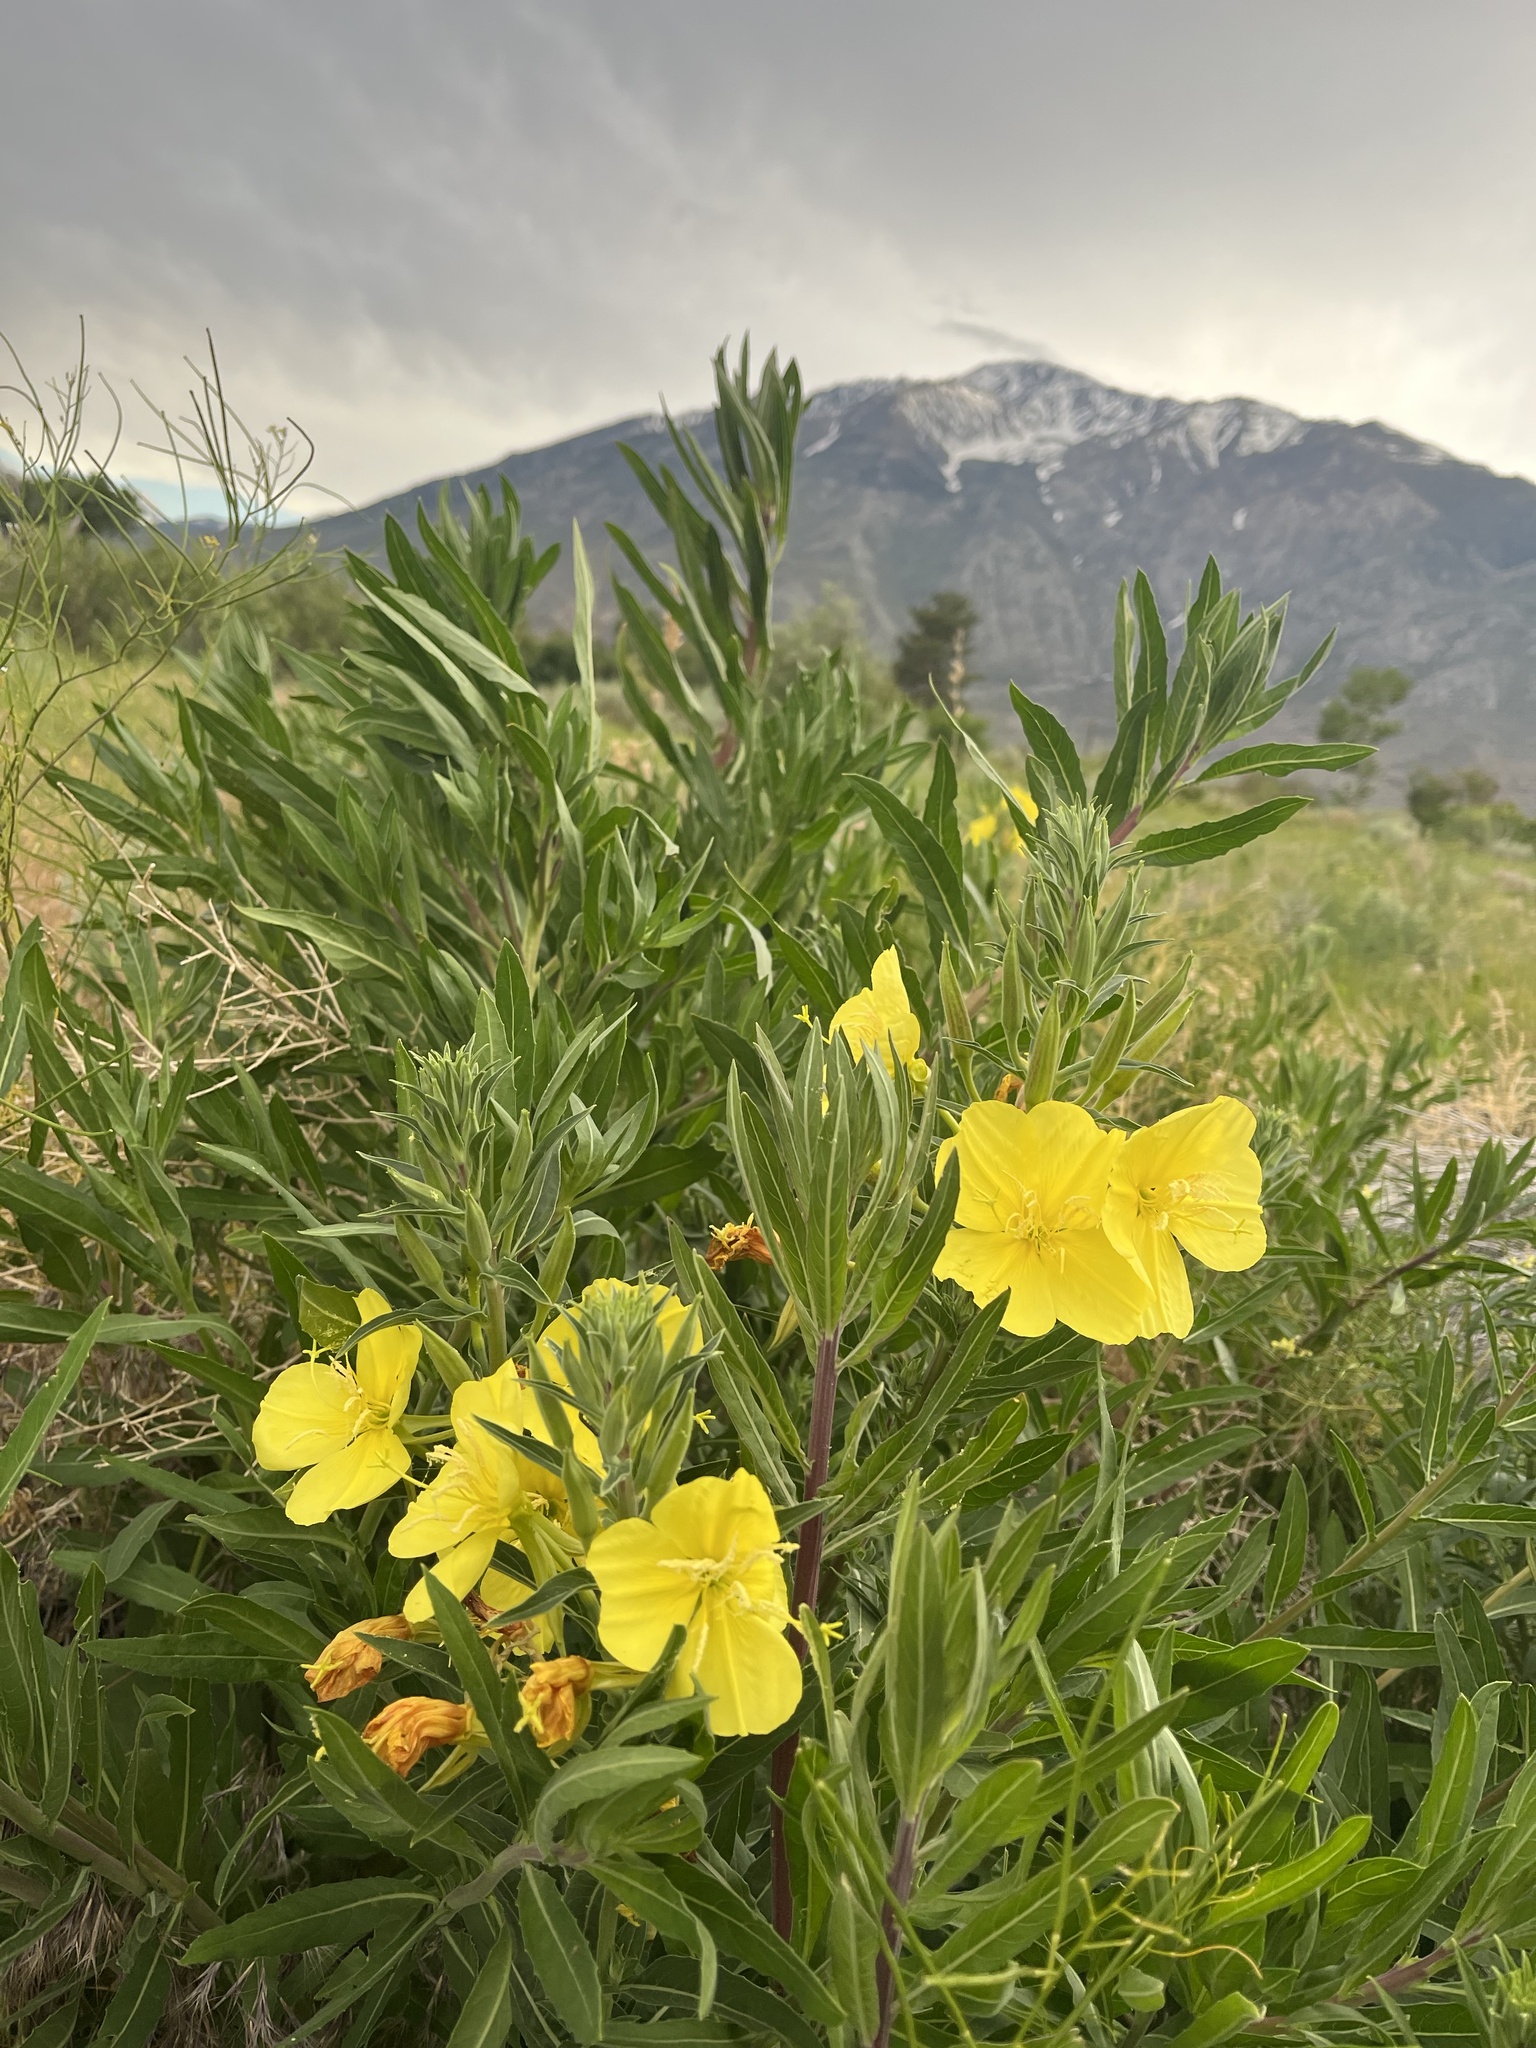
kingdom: Plantae
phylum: Tracheophyta
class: Magnoliopsida
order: Myrtales
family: Onagraceae
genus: Oenothera
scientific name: Oenothera elata
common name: Hooker's evening-primrose
